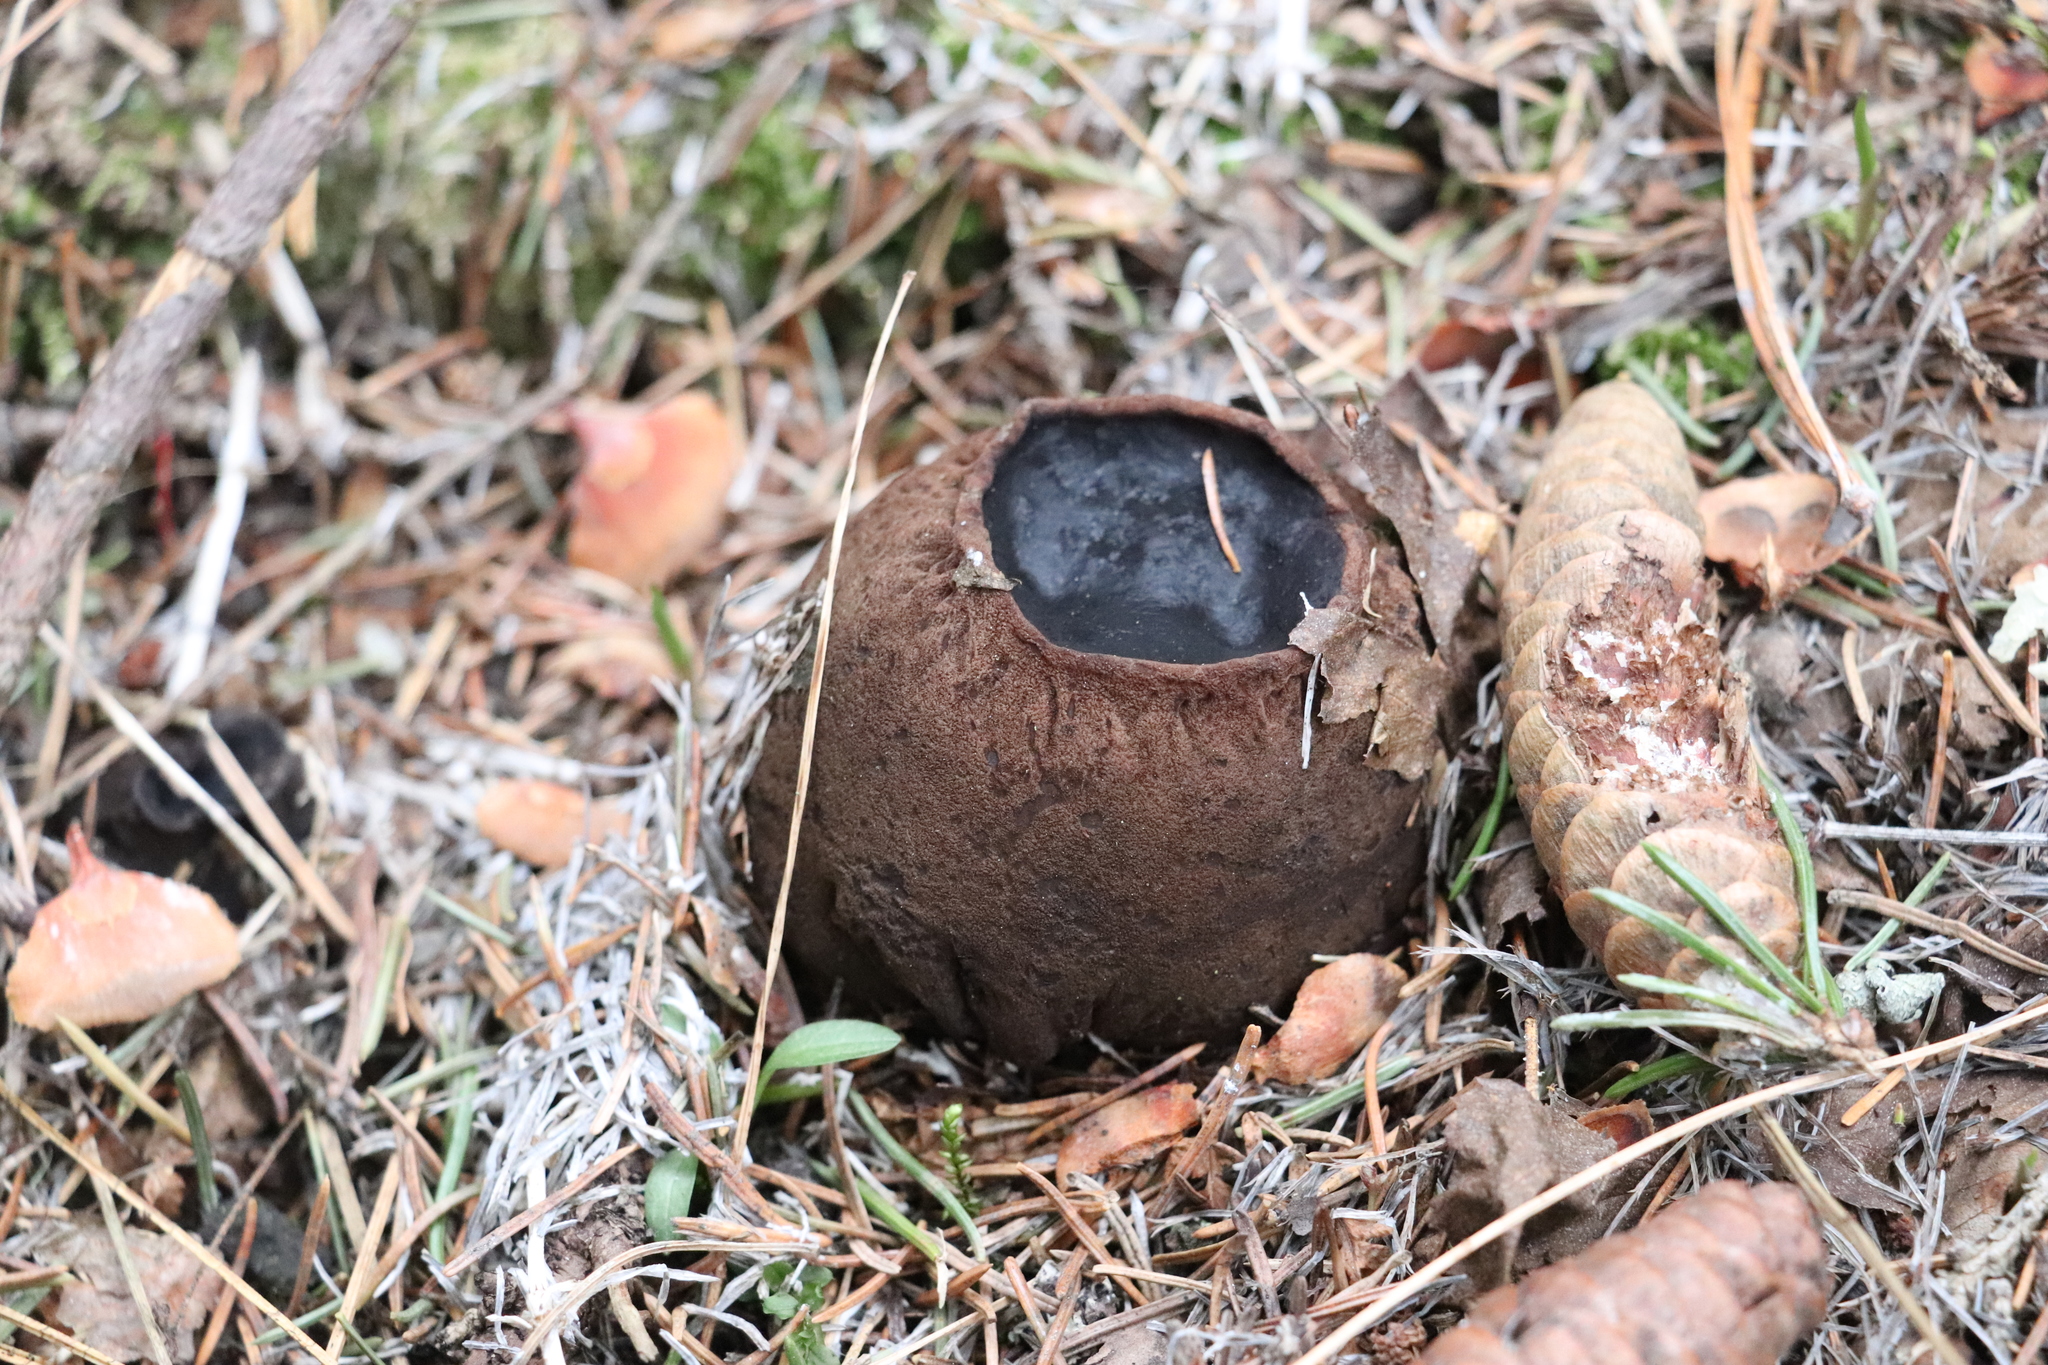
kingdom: Fungi
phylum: Ascomycota
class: Pezizomycetes
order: Pezizales
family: Sarcosomataceae
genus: Sarcosoma
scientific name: Sarcosoma globosum
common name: Charred-pancake cup
